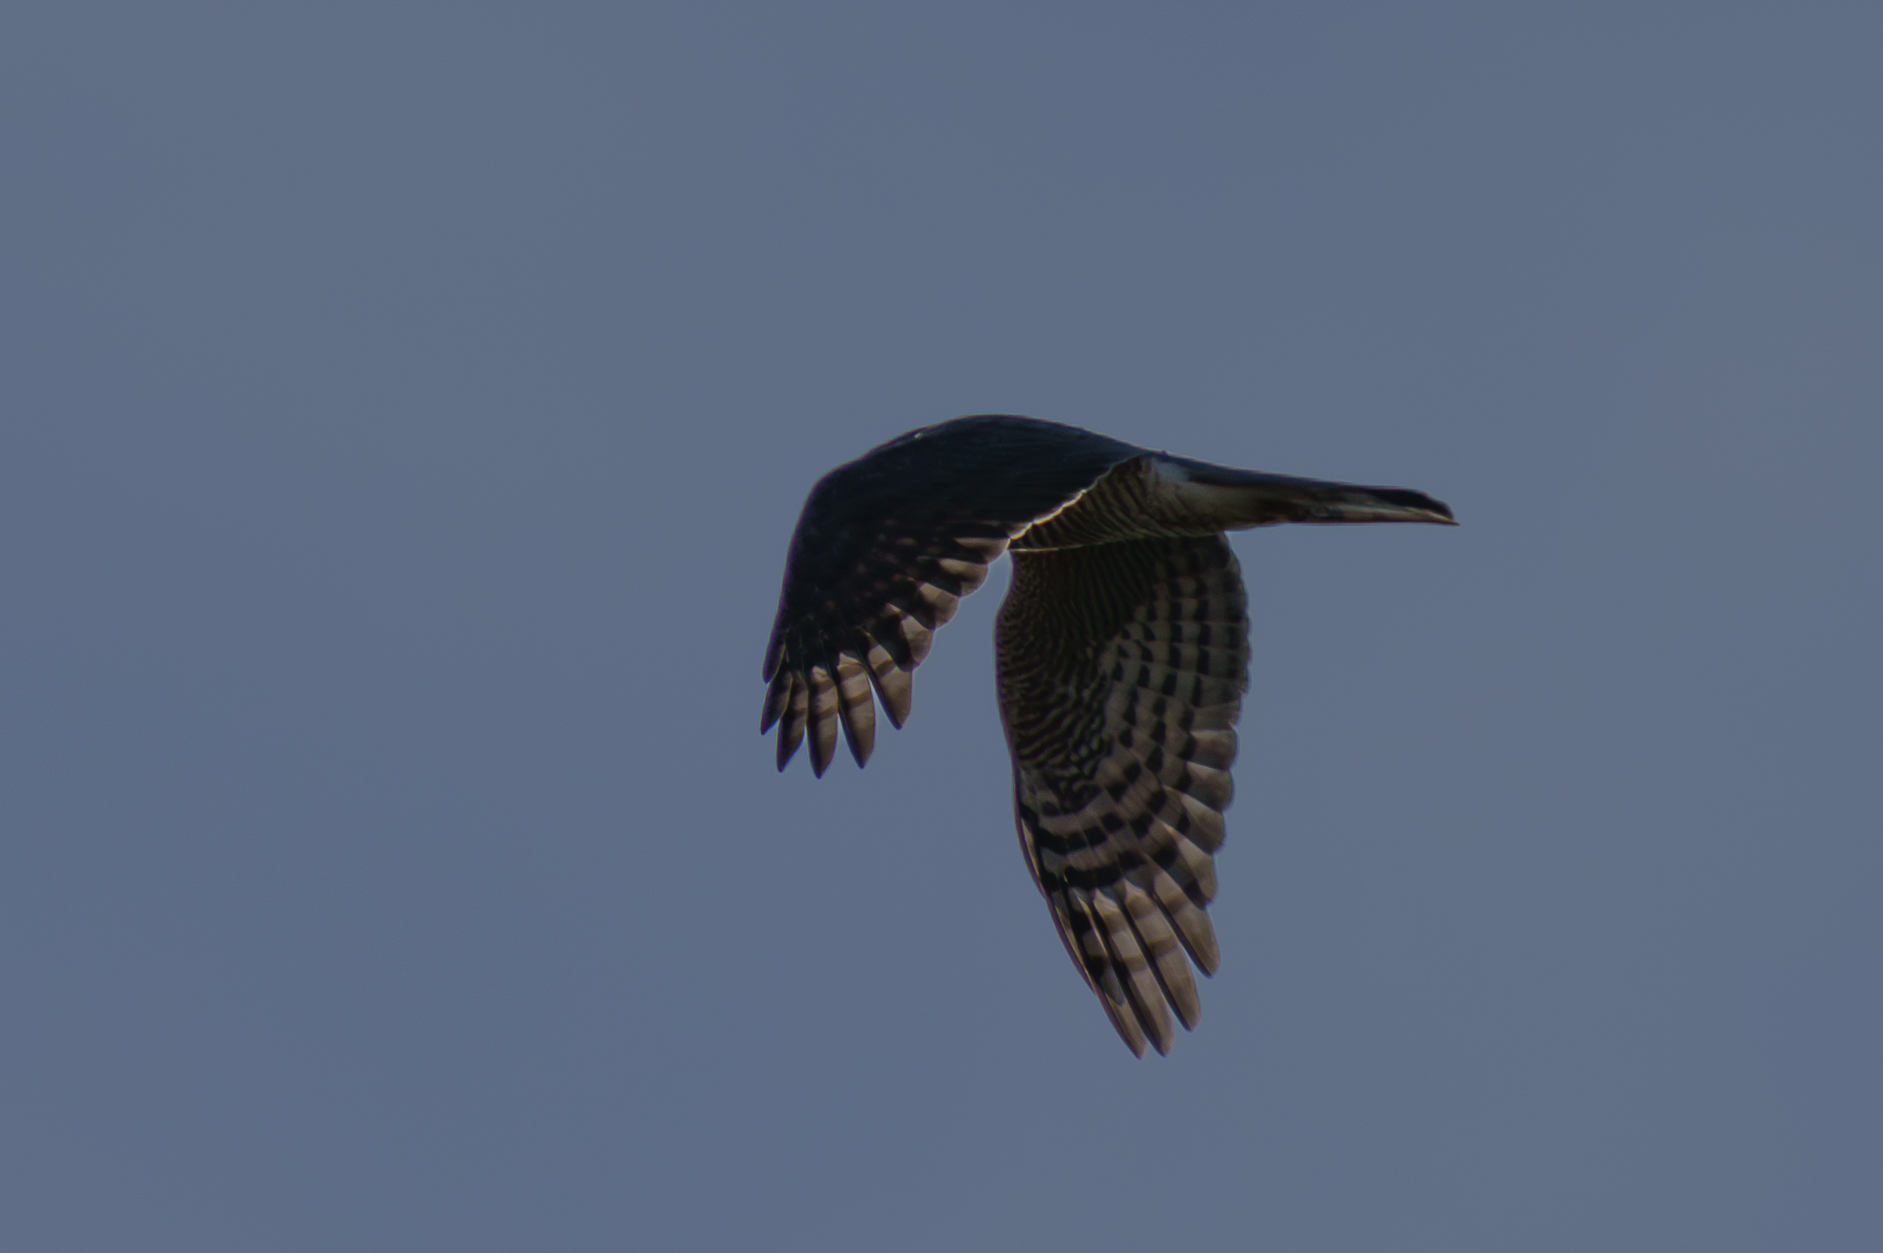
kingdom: Animalia
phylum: Chordata
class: Aves
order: Accipitriformes
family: Accipitridae
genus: Accipiter
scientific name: Accipiter nisus
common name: Eurasian sparrowhawk
